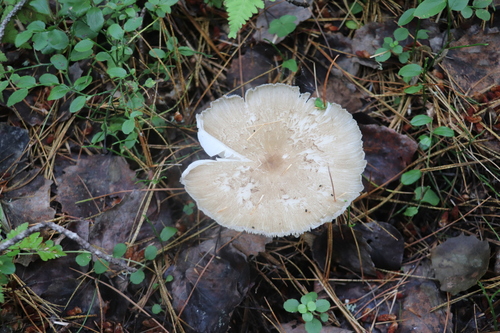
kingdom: Fungi
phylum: Basidiomycota
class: Agaricomycetes
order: Agaricales
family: Tricholomataceae
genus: Megacollybia
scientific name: Megacollybia platyphylla
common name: Whitelaced shank
